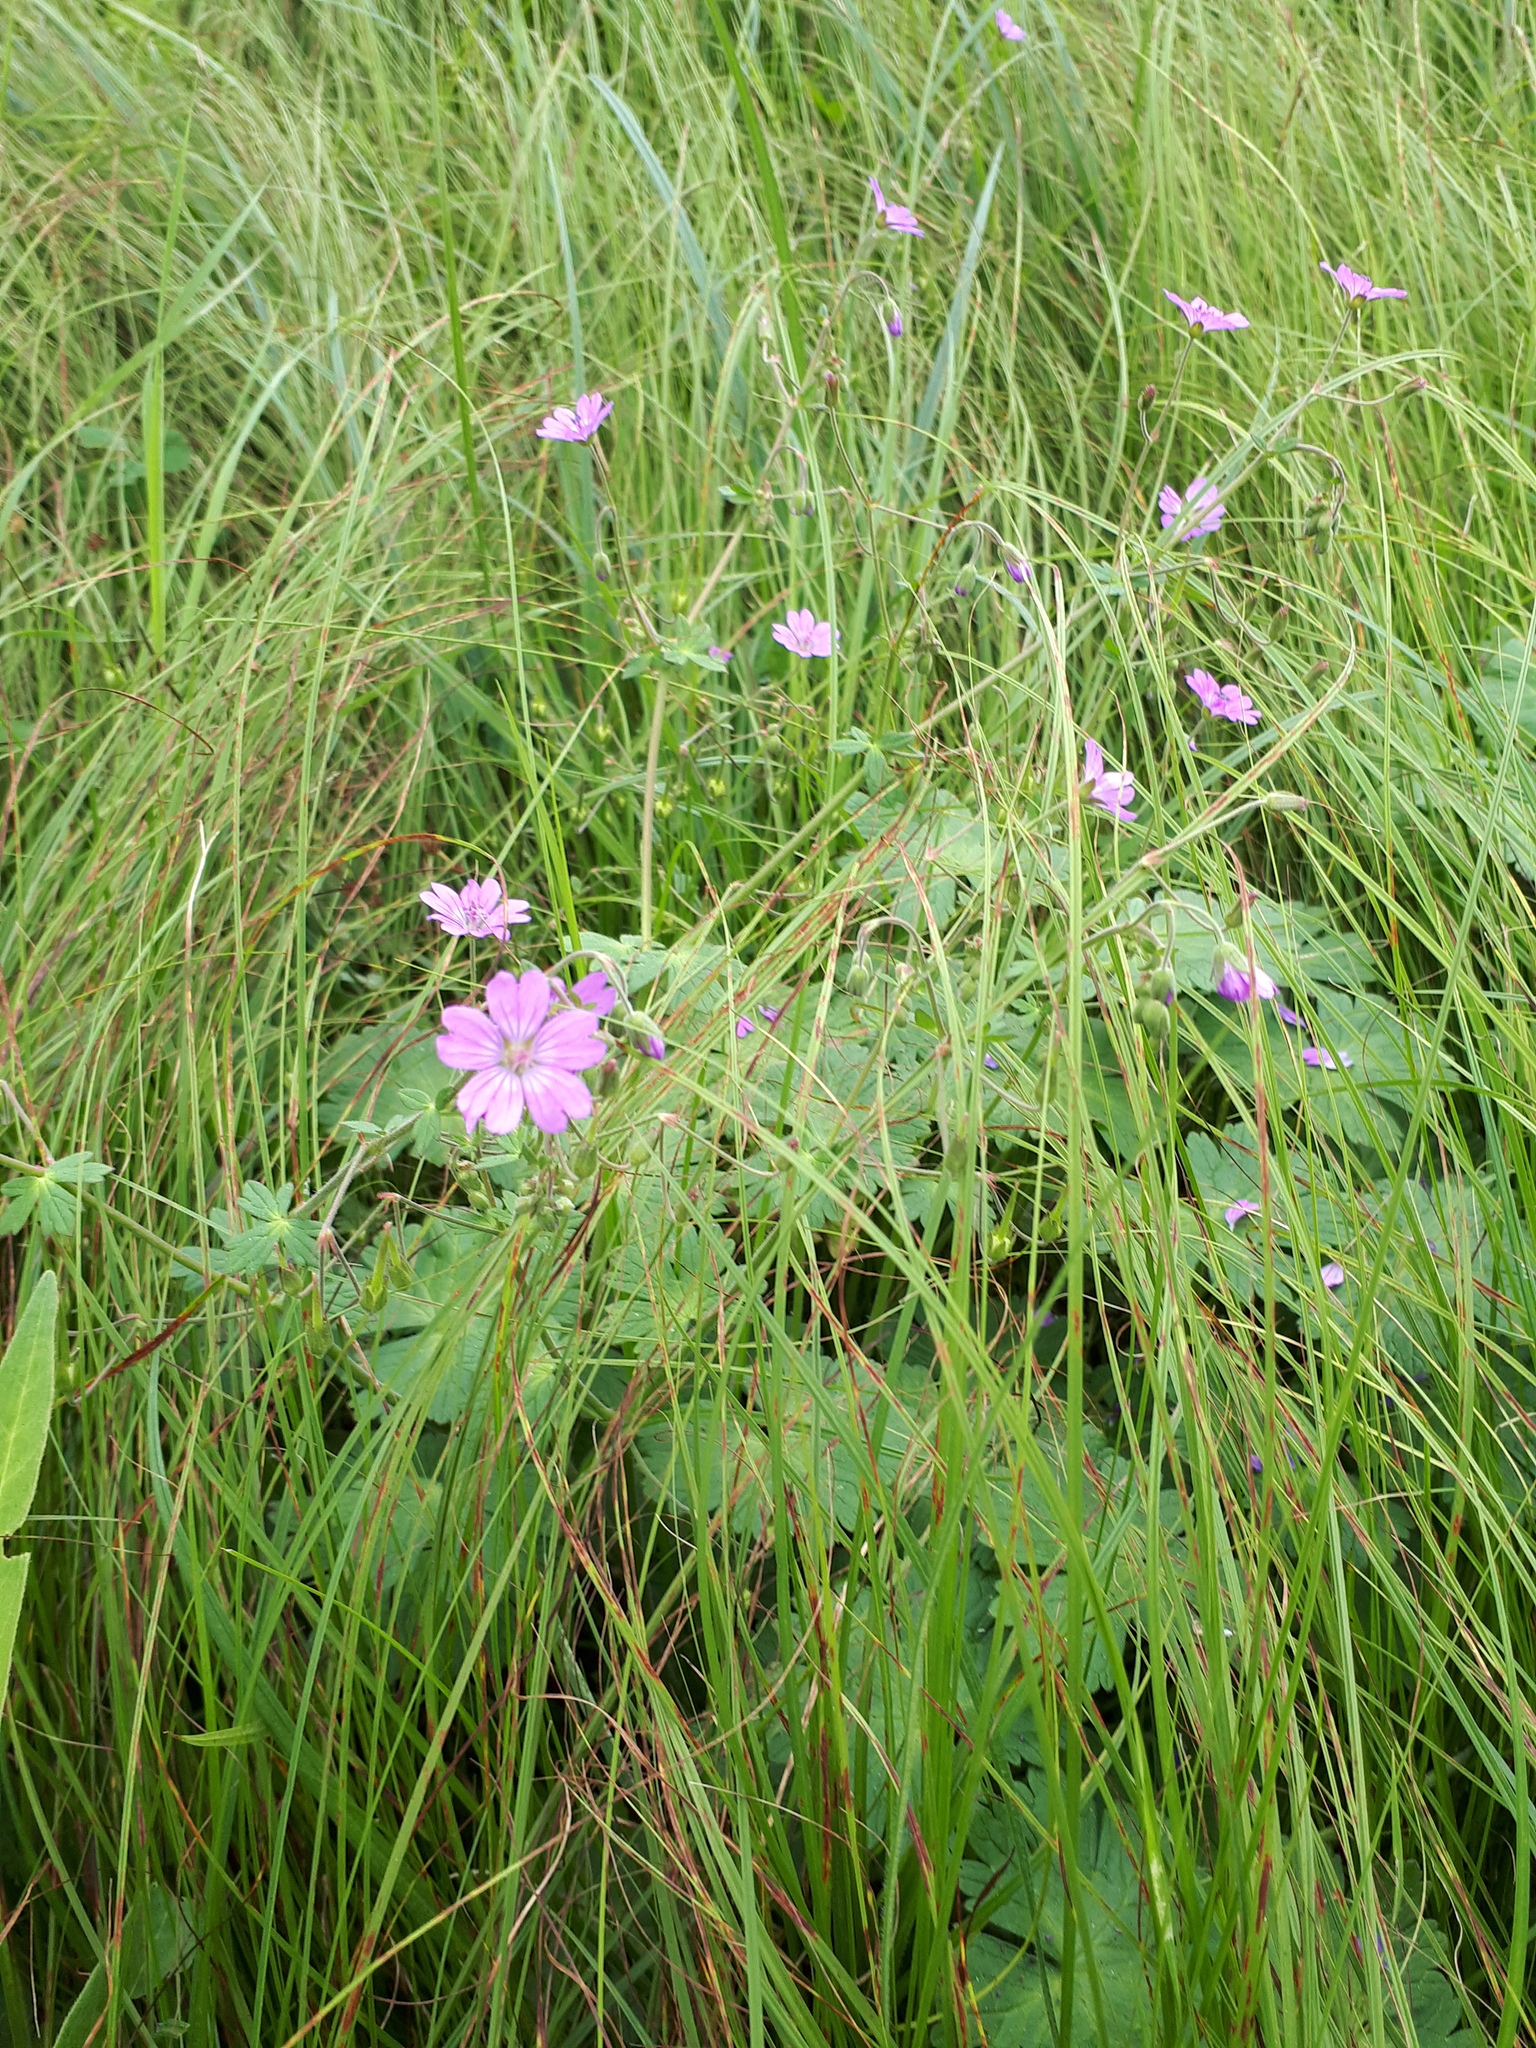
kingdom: Plantae
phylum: Tracheophyta
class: Magnoliopsida
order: Geraniales
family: Geraniaceae
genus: Geranium
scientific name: Geranium pyrenaicum
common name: Hedgerow crane's-bill
